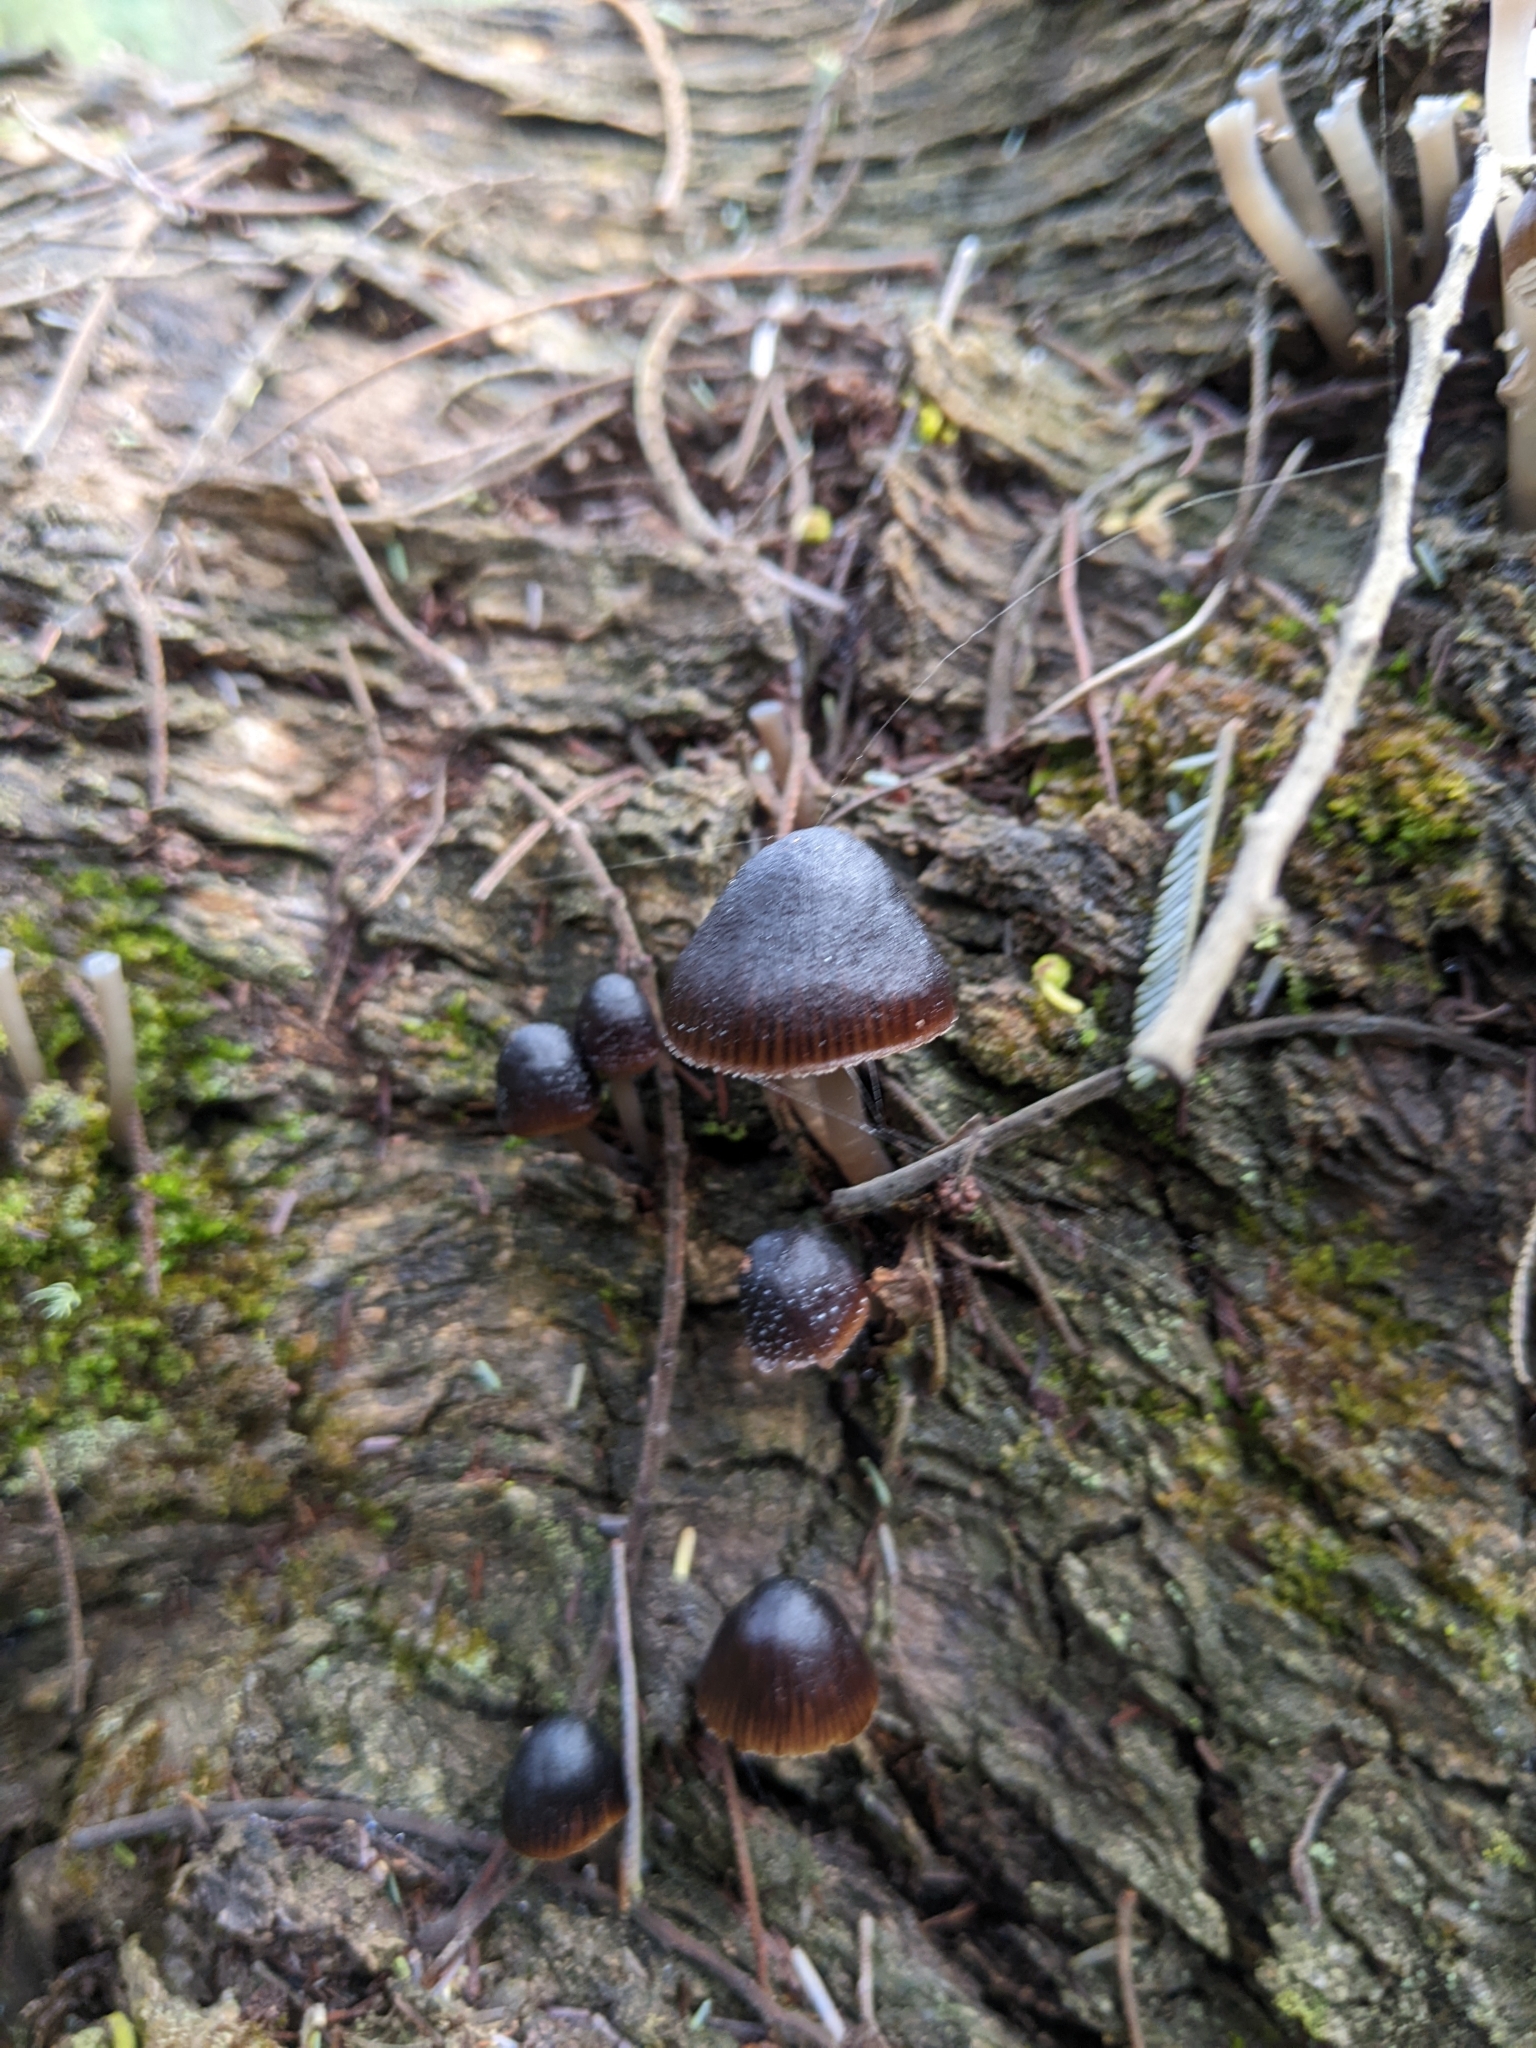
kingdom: Fungi
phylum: Basidiomycota
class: Agaricomycetes
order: Agaricales
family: Mycenaceae
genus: Mycena
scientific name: Mycena nargan
